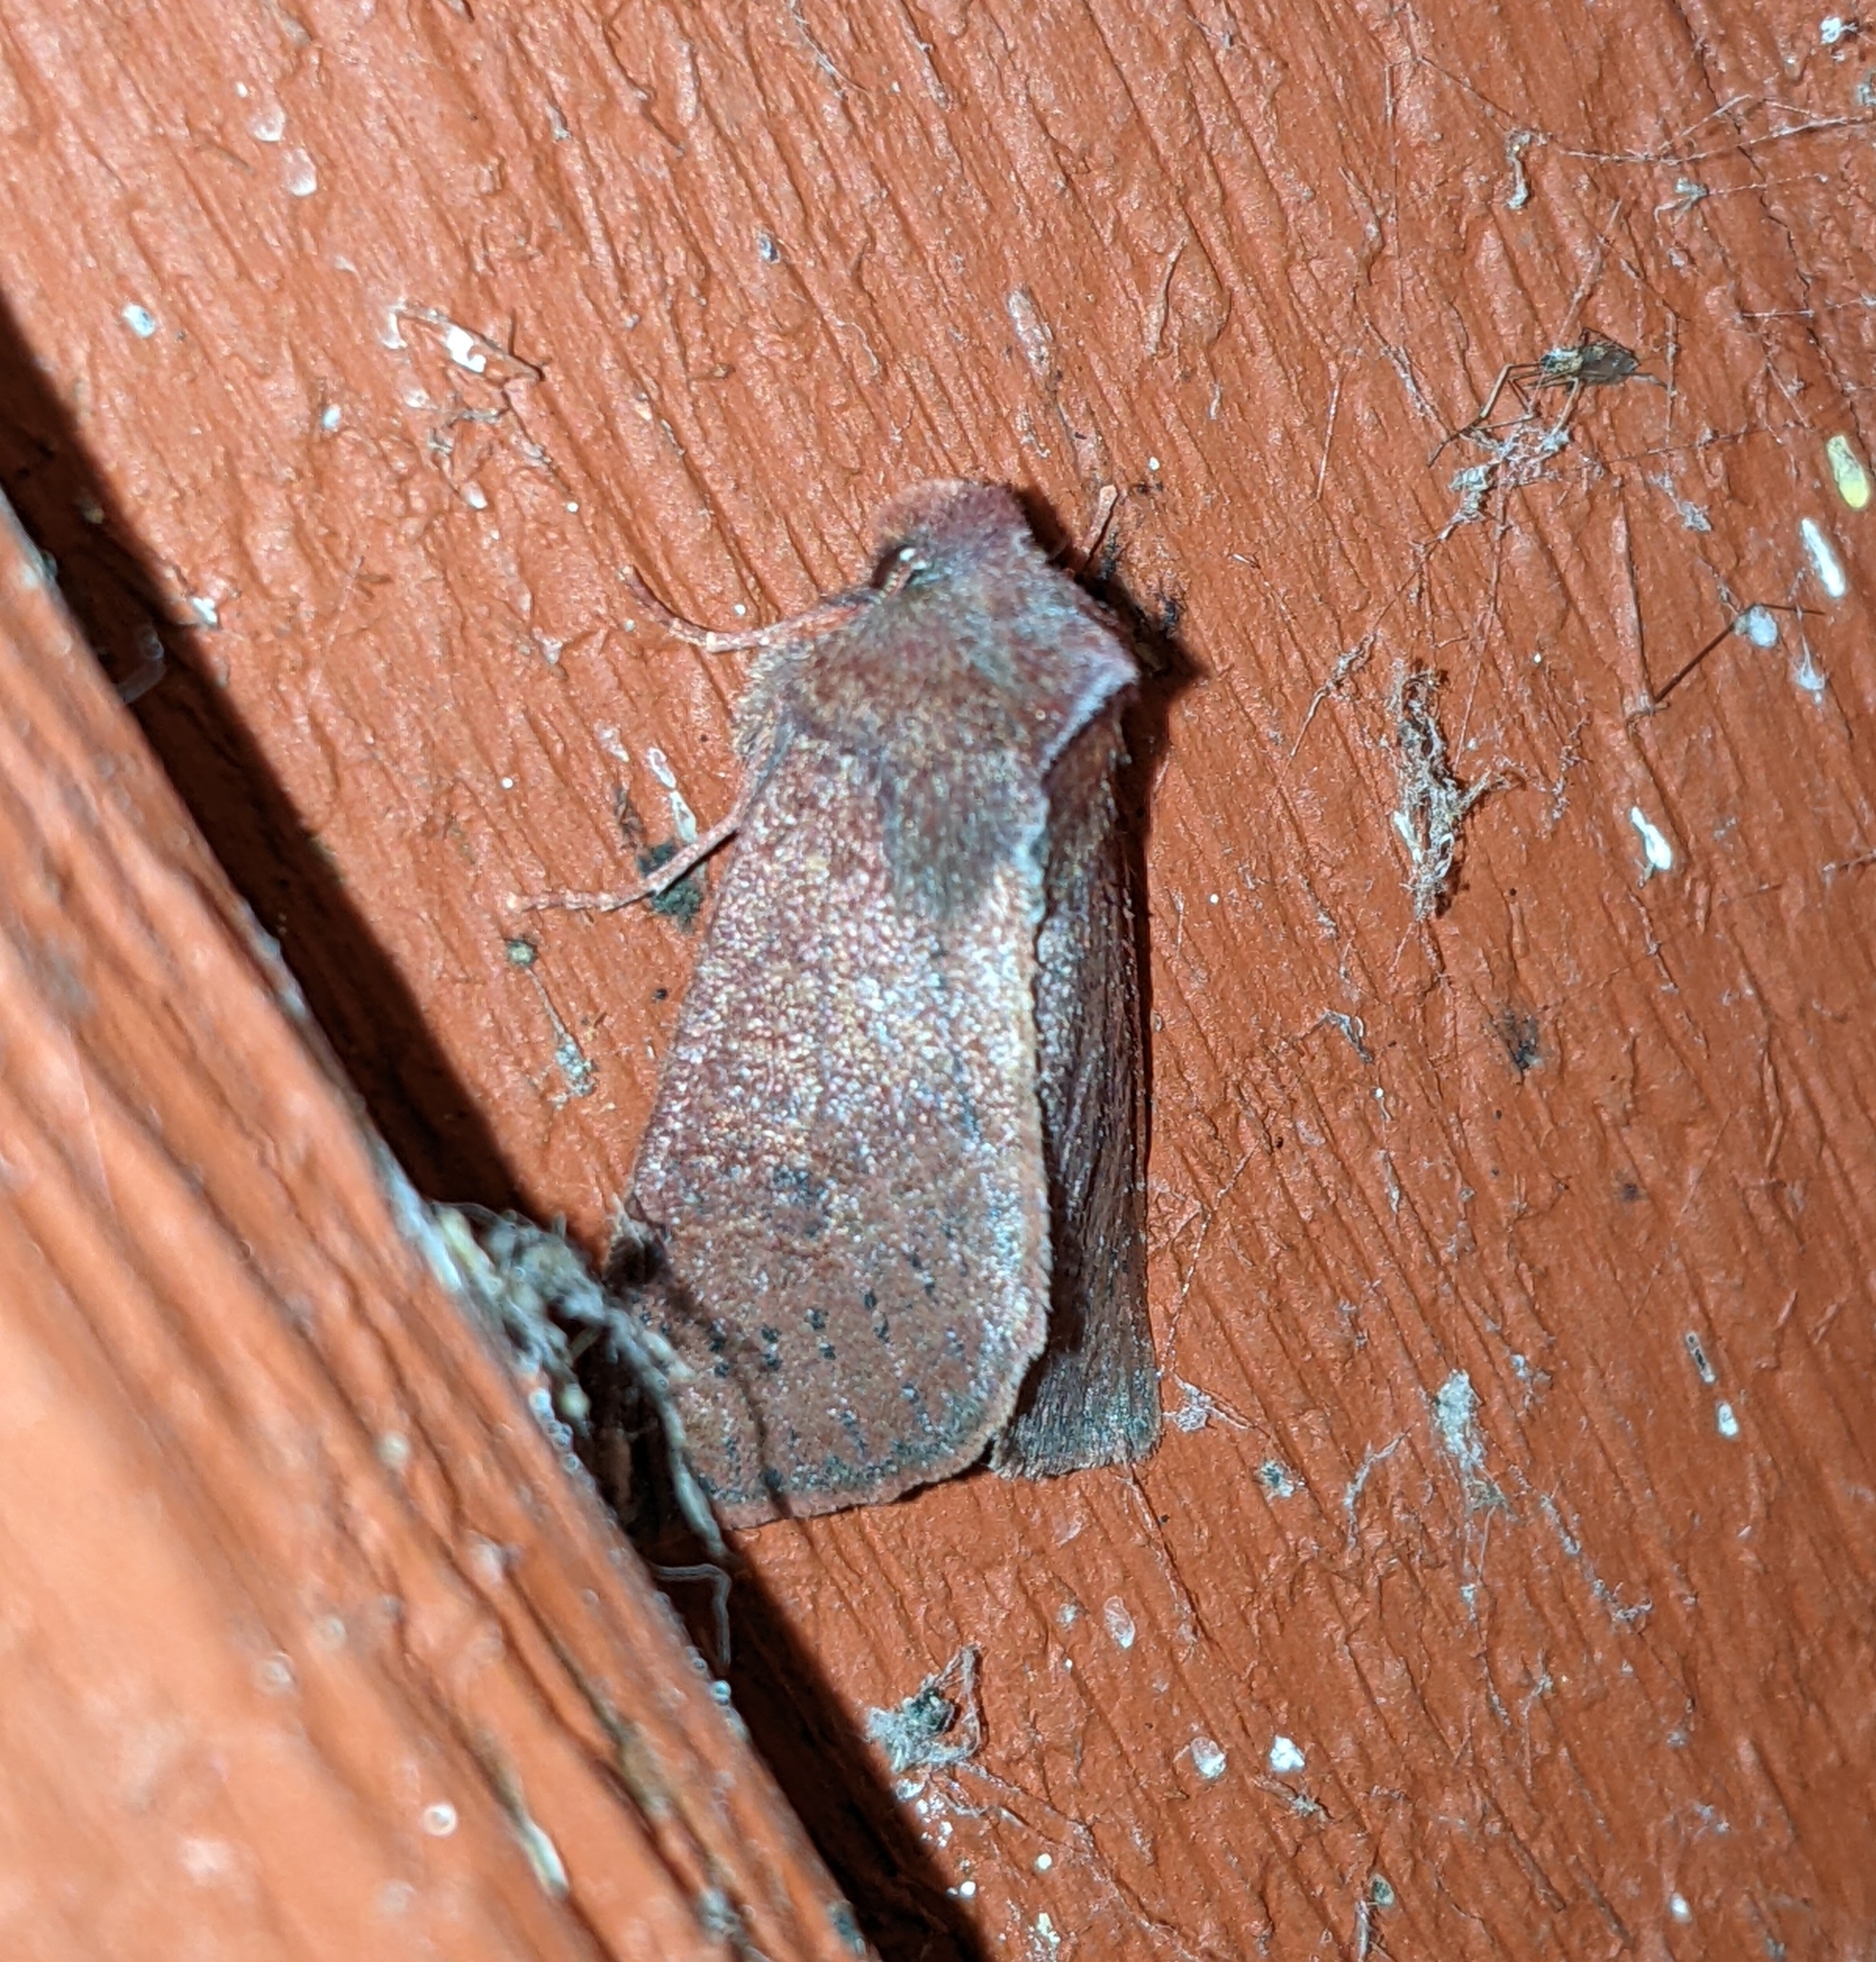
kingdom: Animalia
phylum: Arthropoda
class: Insecta
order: Lepidoptera
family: Noctuidae
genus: Orthosia
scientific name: Orthosia transparens
